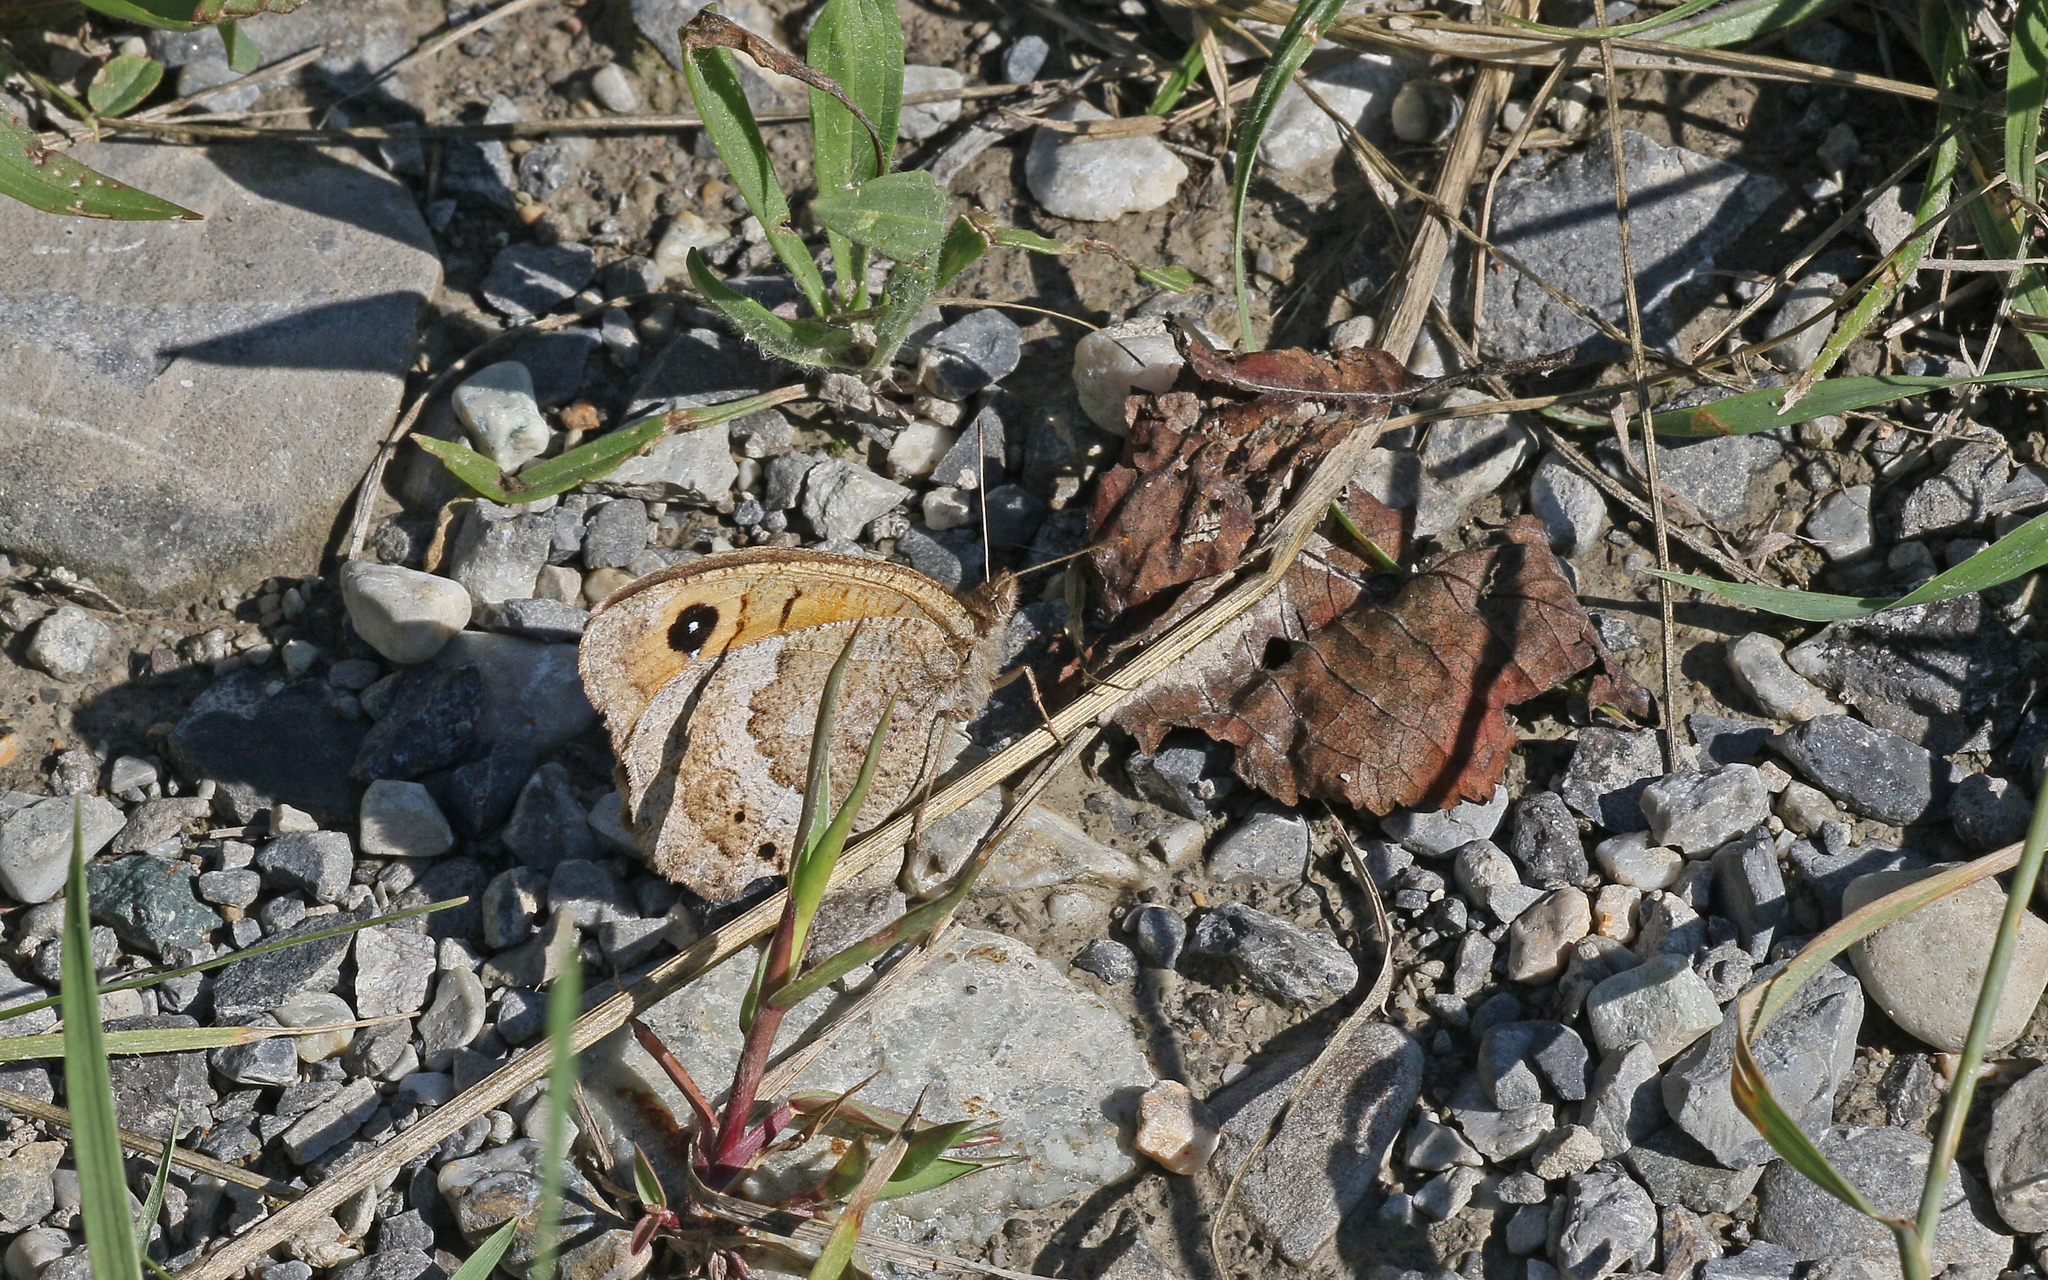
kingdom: Animalia
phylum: Arthropoda
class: Insecta
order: Lepidoptera
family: Nymphalidae
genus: Satyrus
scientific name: Satyrus ferula
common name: Great sooty satyr
